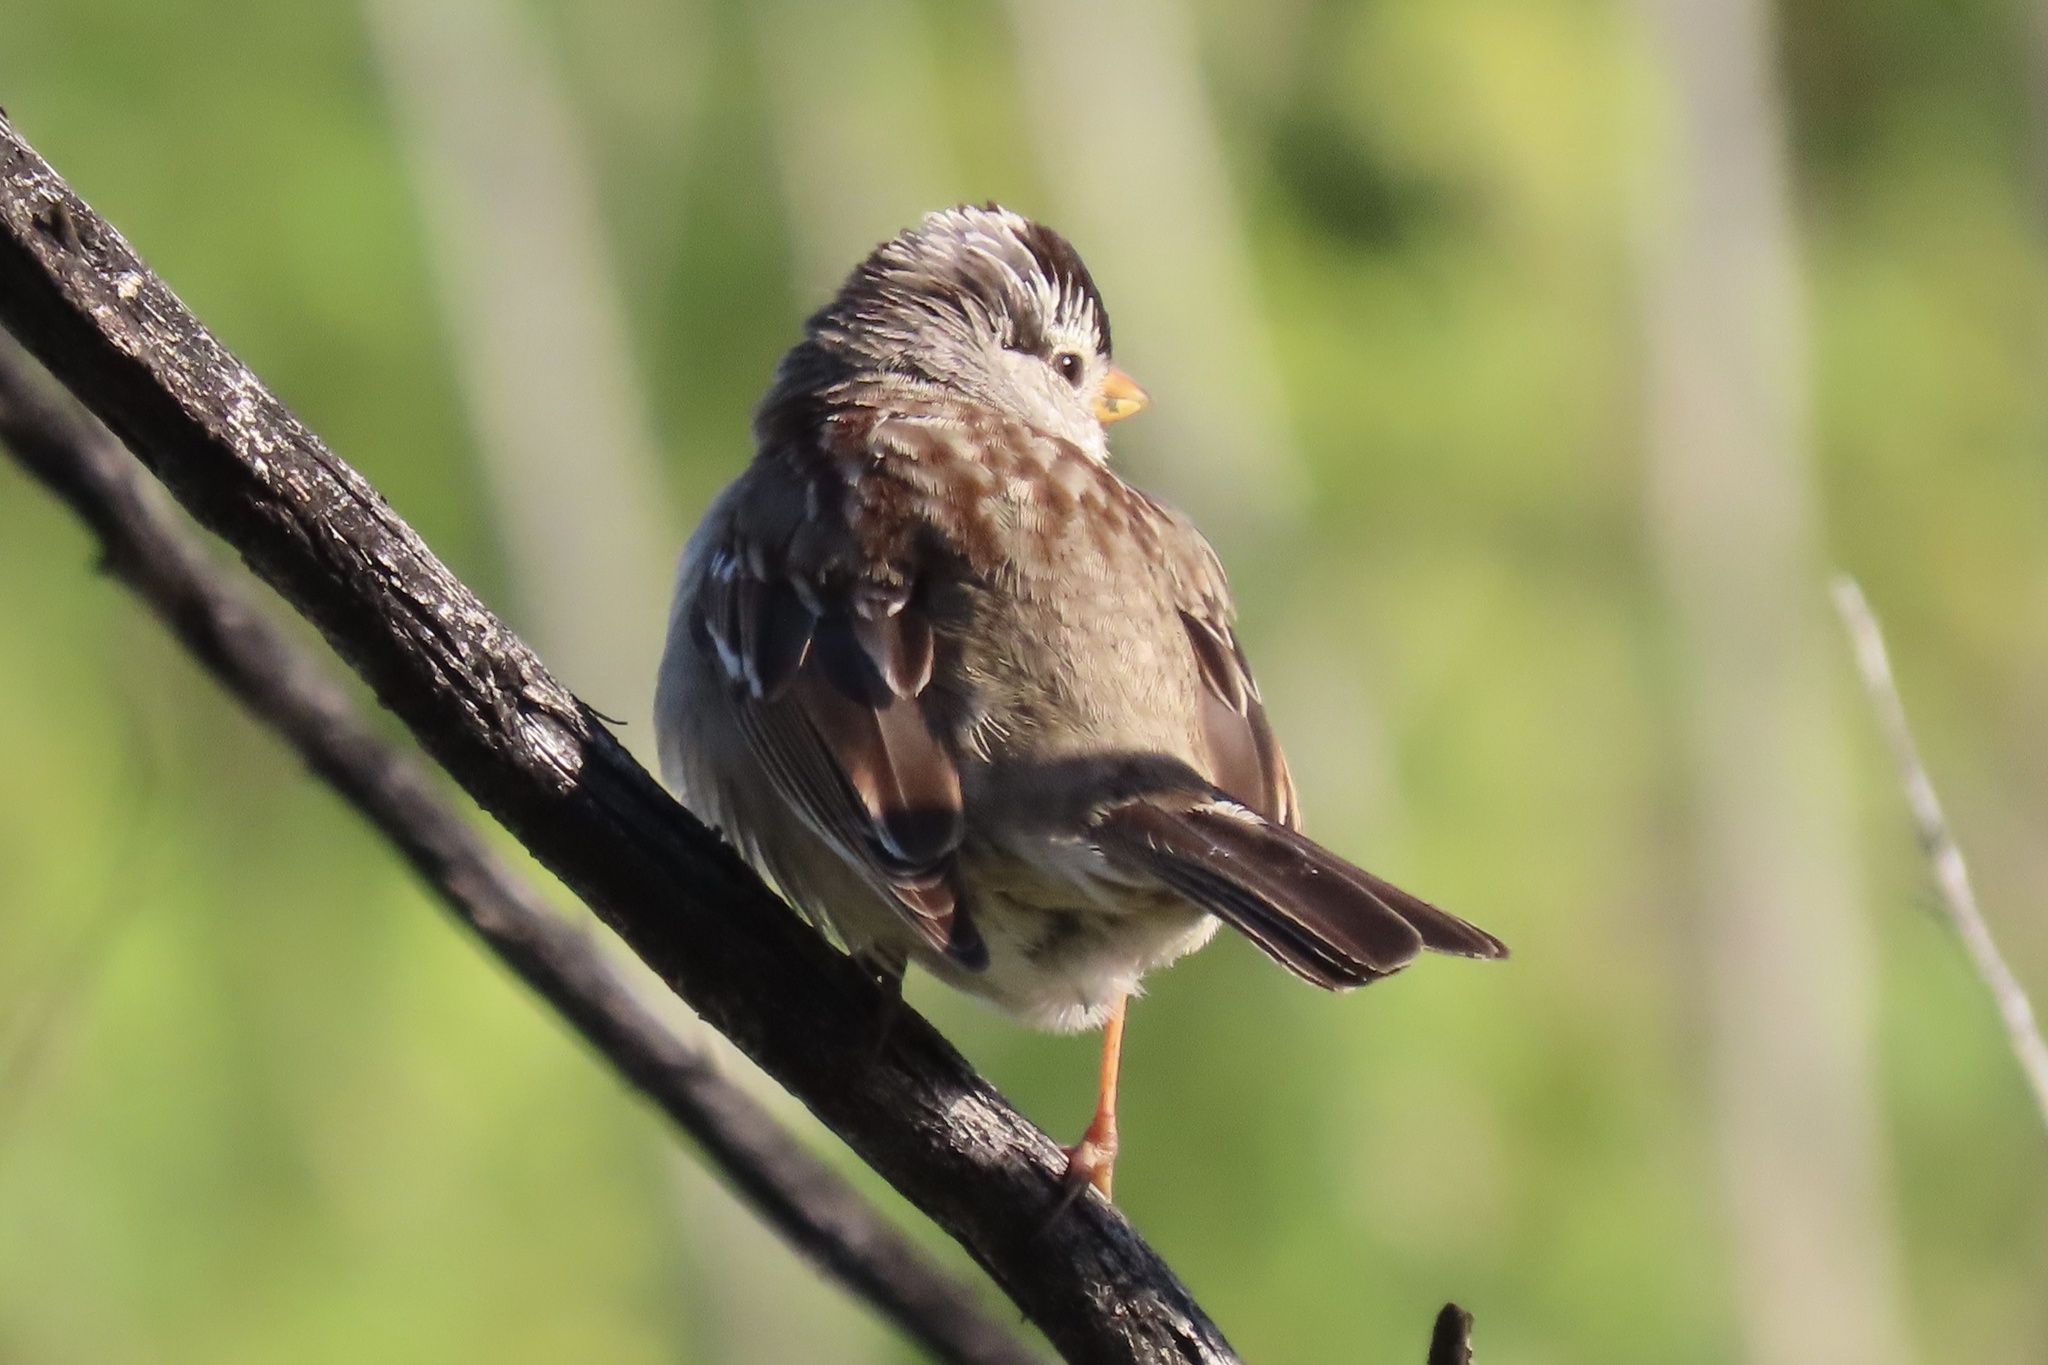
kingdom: Animalia
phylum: Chordata
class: Aves
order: Passeriformes
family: Passerellidae
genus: Zonotrichia
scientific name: Zonotrichia leucophrys
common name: White-crowned sparrow
